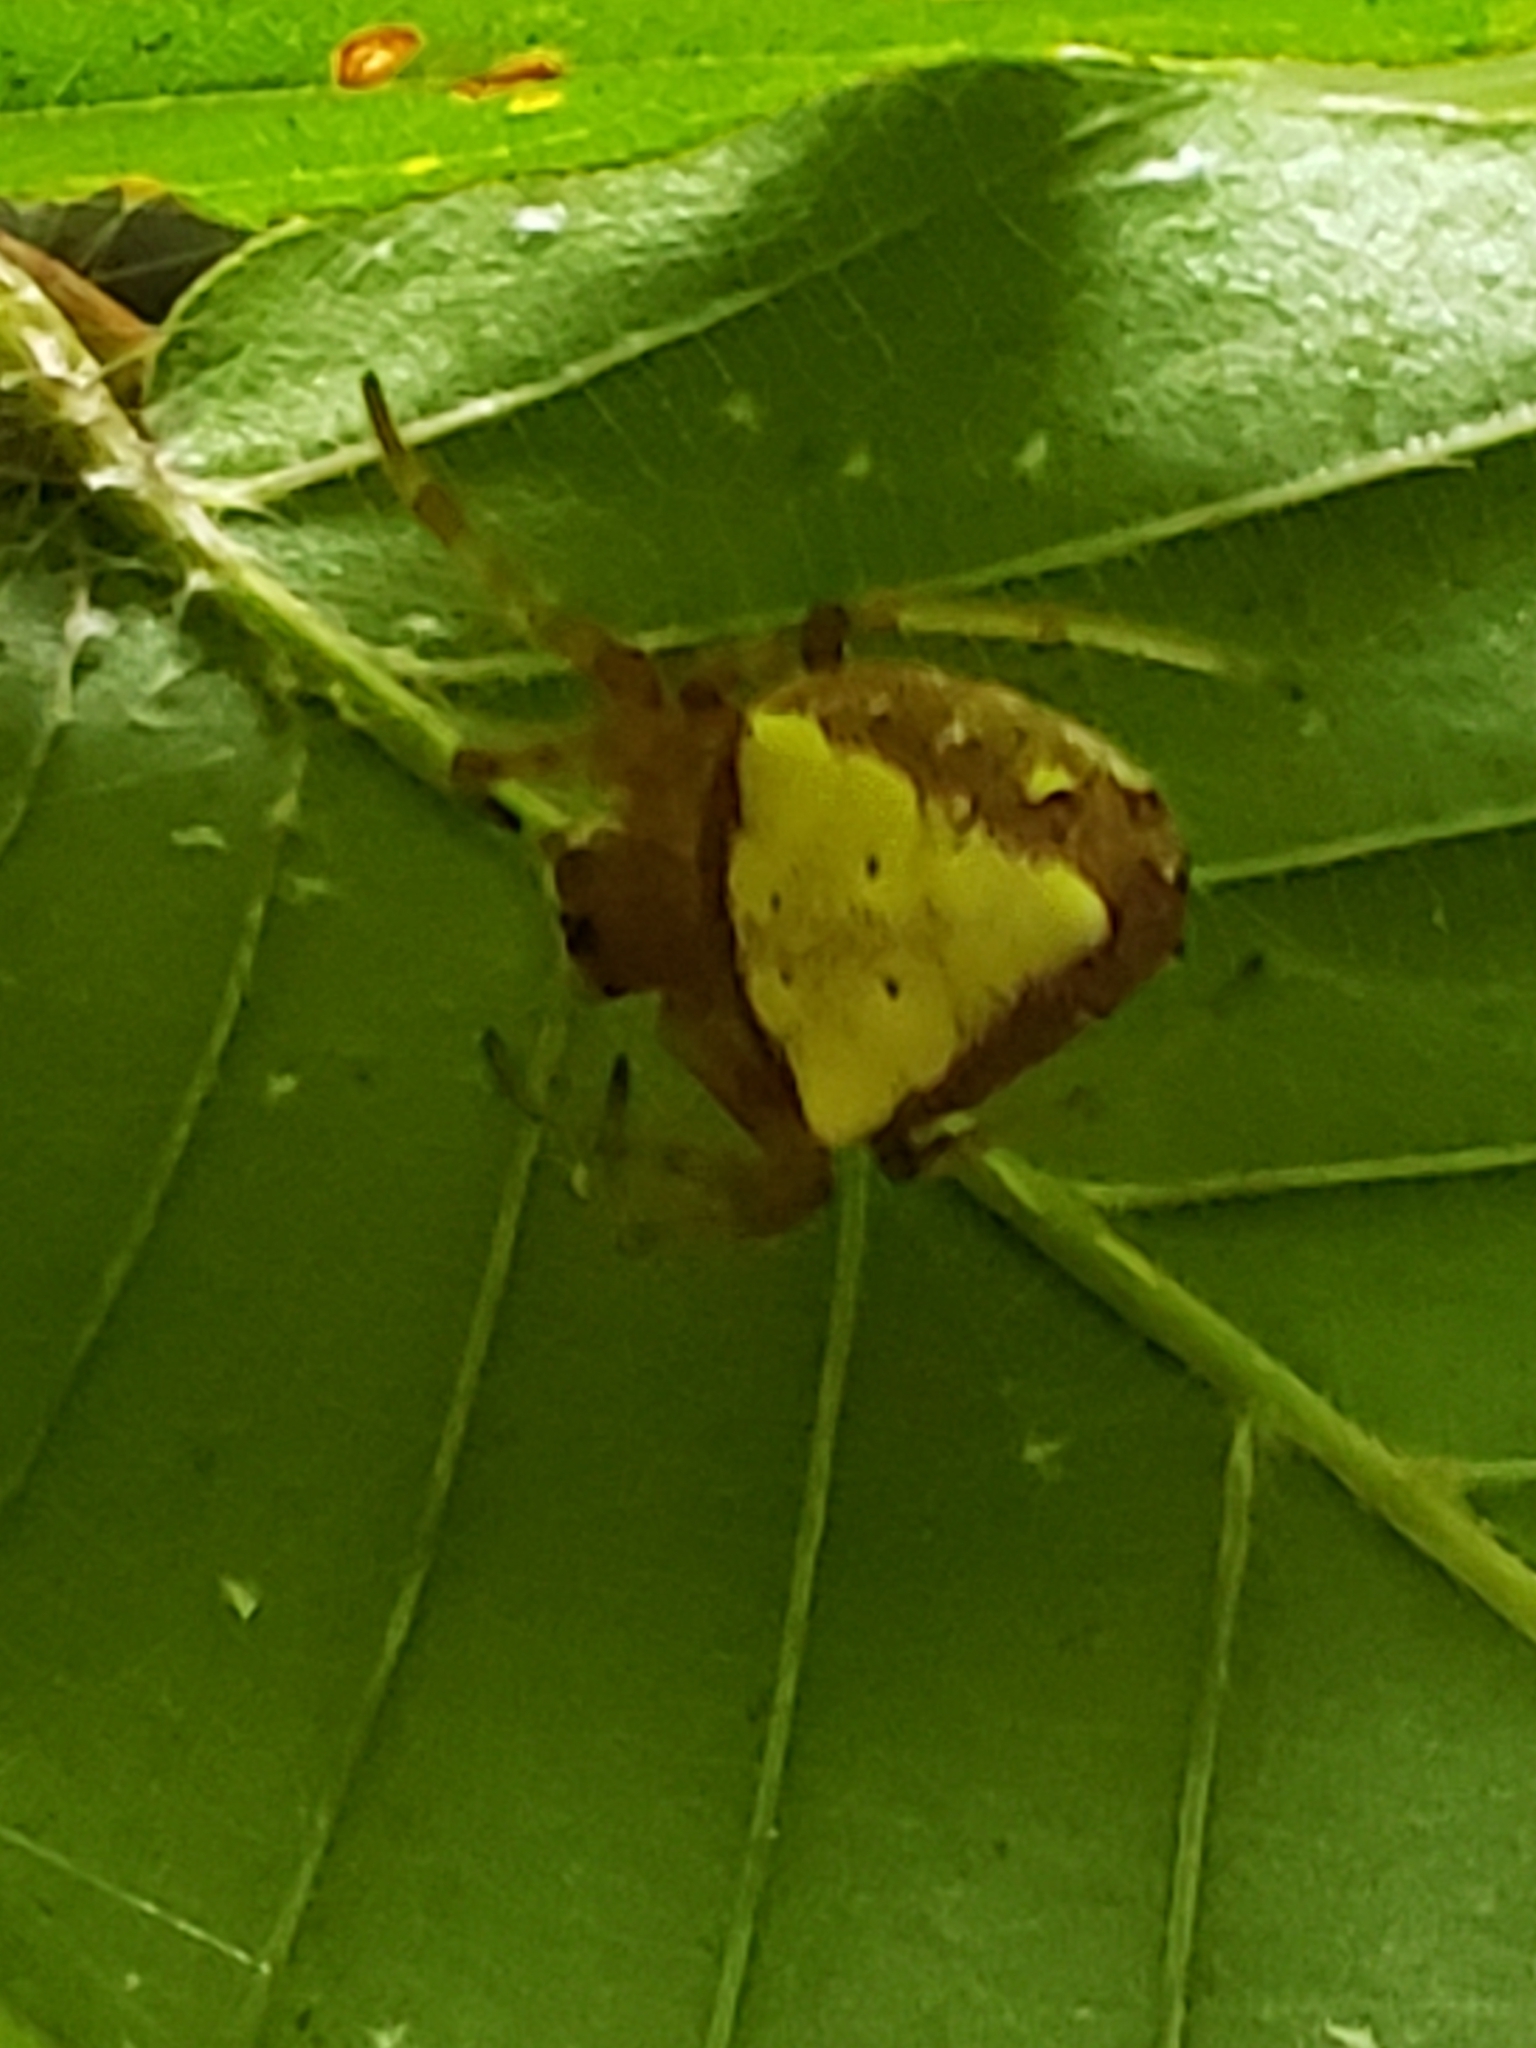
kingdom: Animalia
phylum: Arthropoda
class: Arachnida
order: Araneae
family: Araneidae
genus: Verrucosa
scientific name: Verrucosa arenata
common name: Orb weavers
